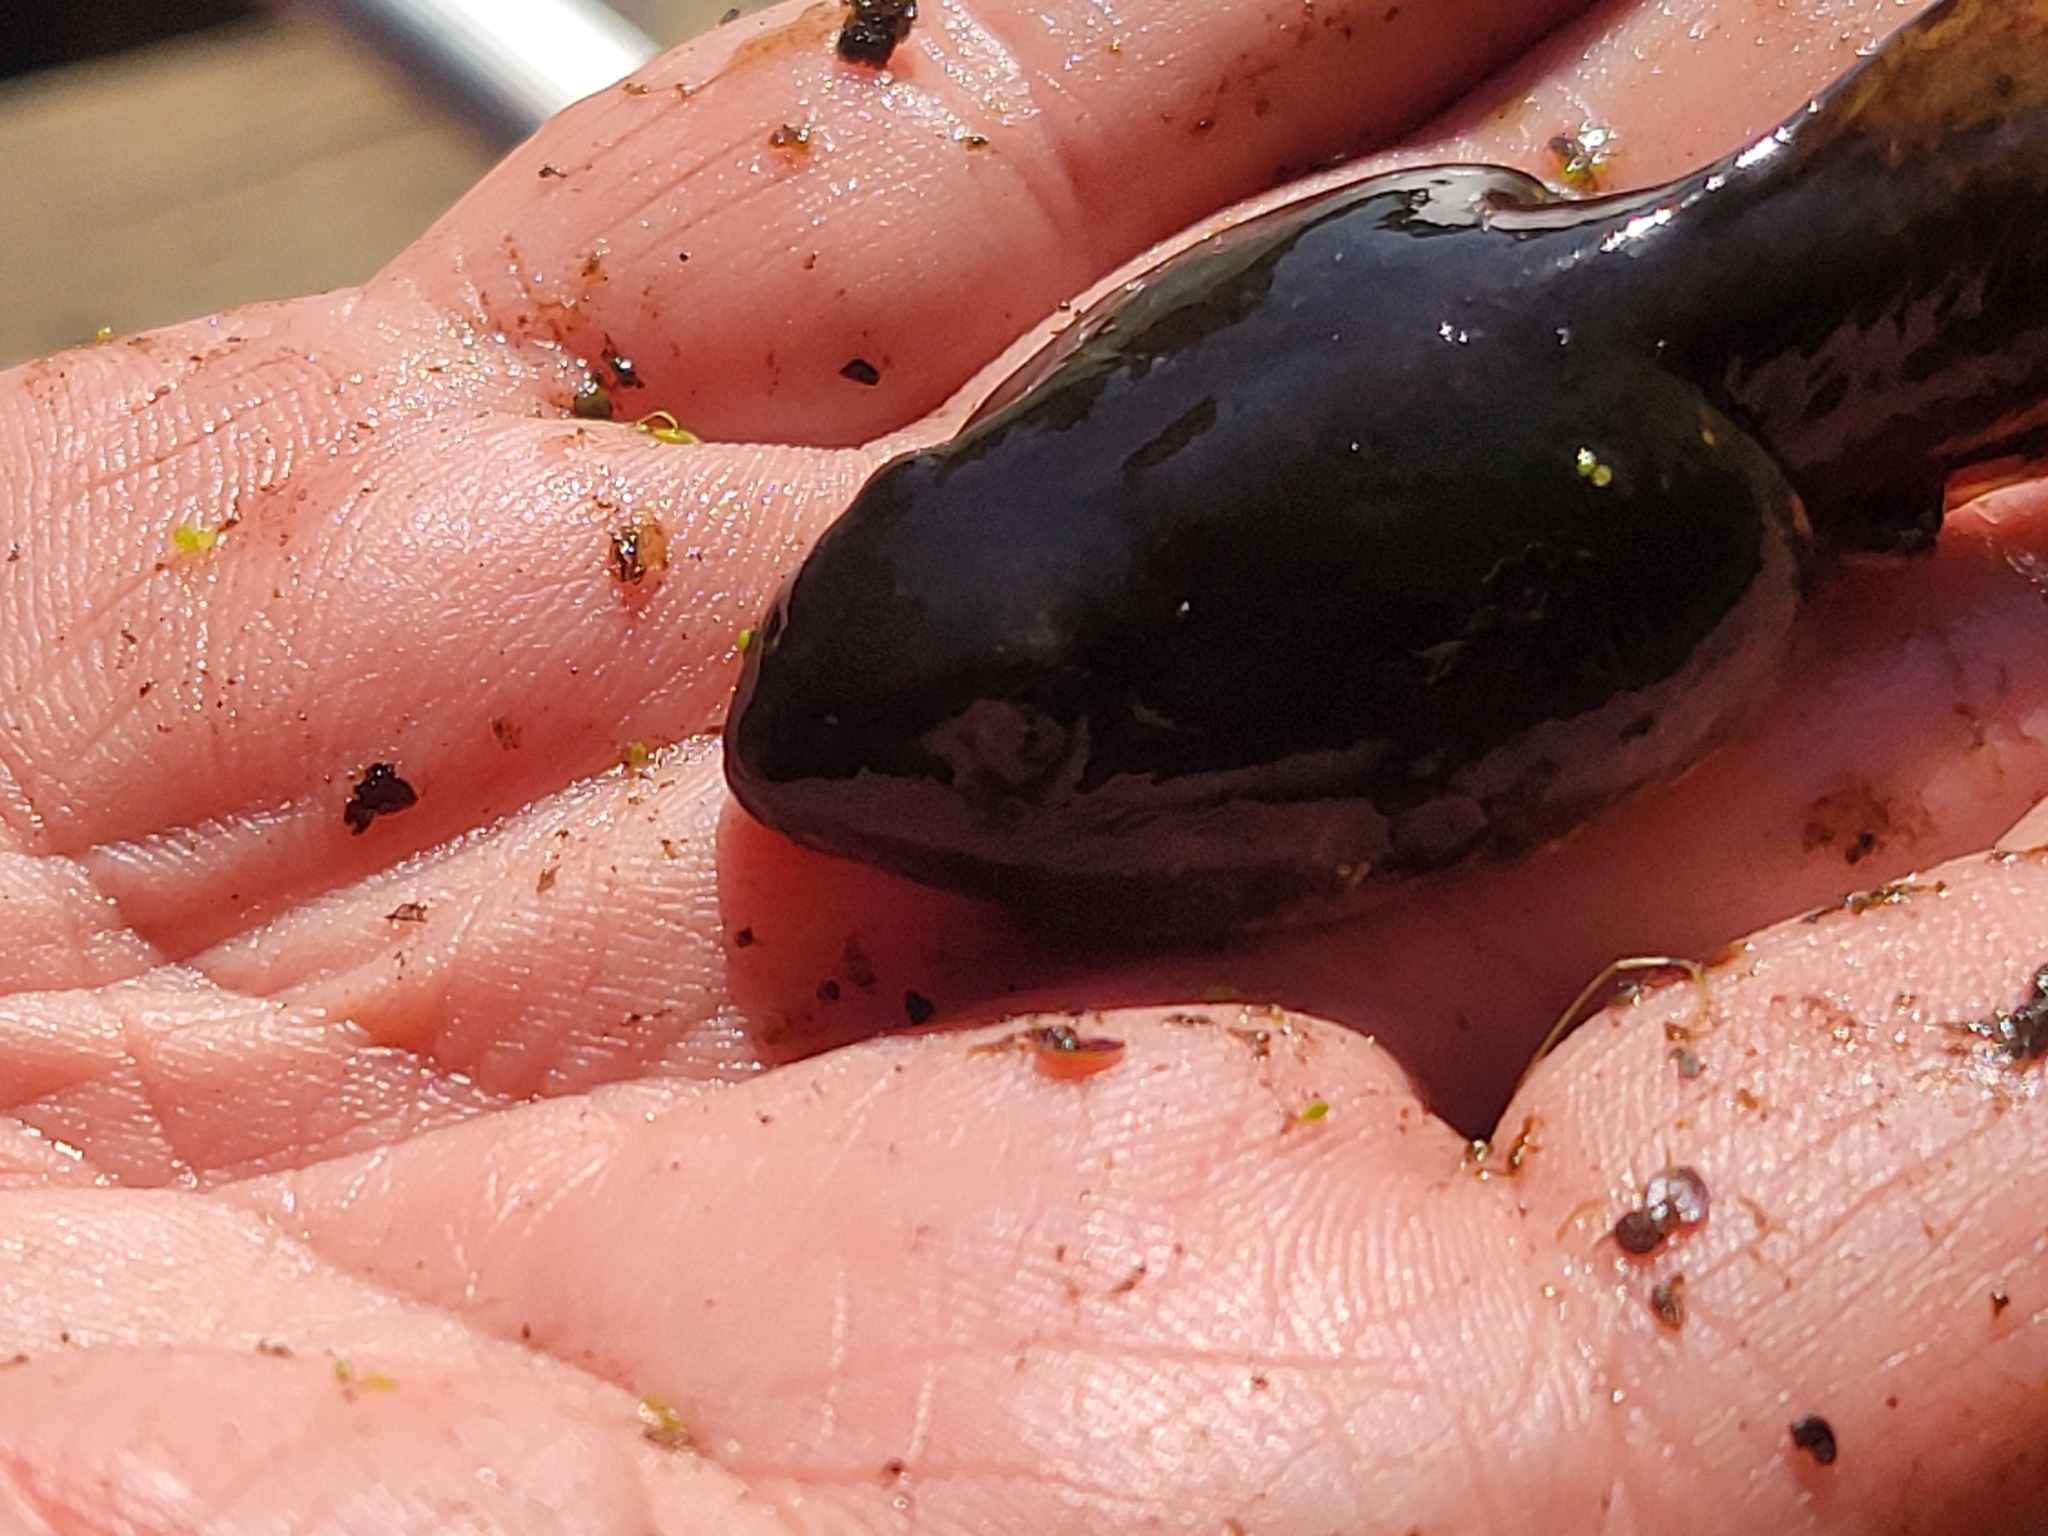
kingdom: Animalia
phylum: Chordata
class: Amphibia
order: Anura
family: Ranidae
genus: Lithobates
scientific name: Lithobates catesbeianus
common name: American bullfrog
